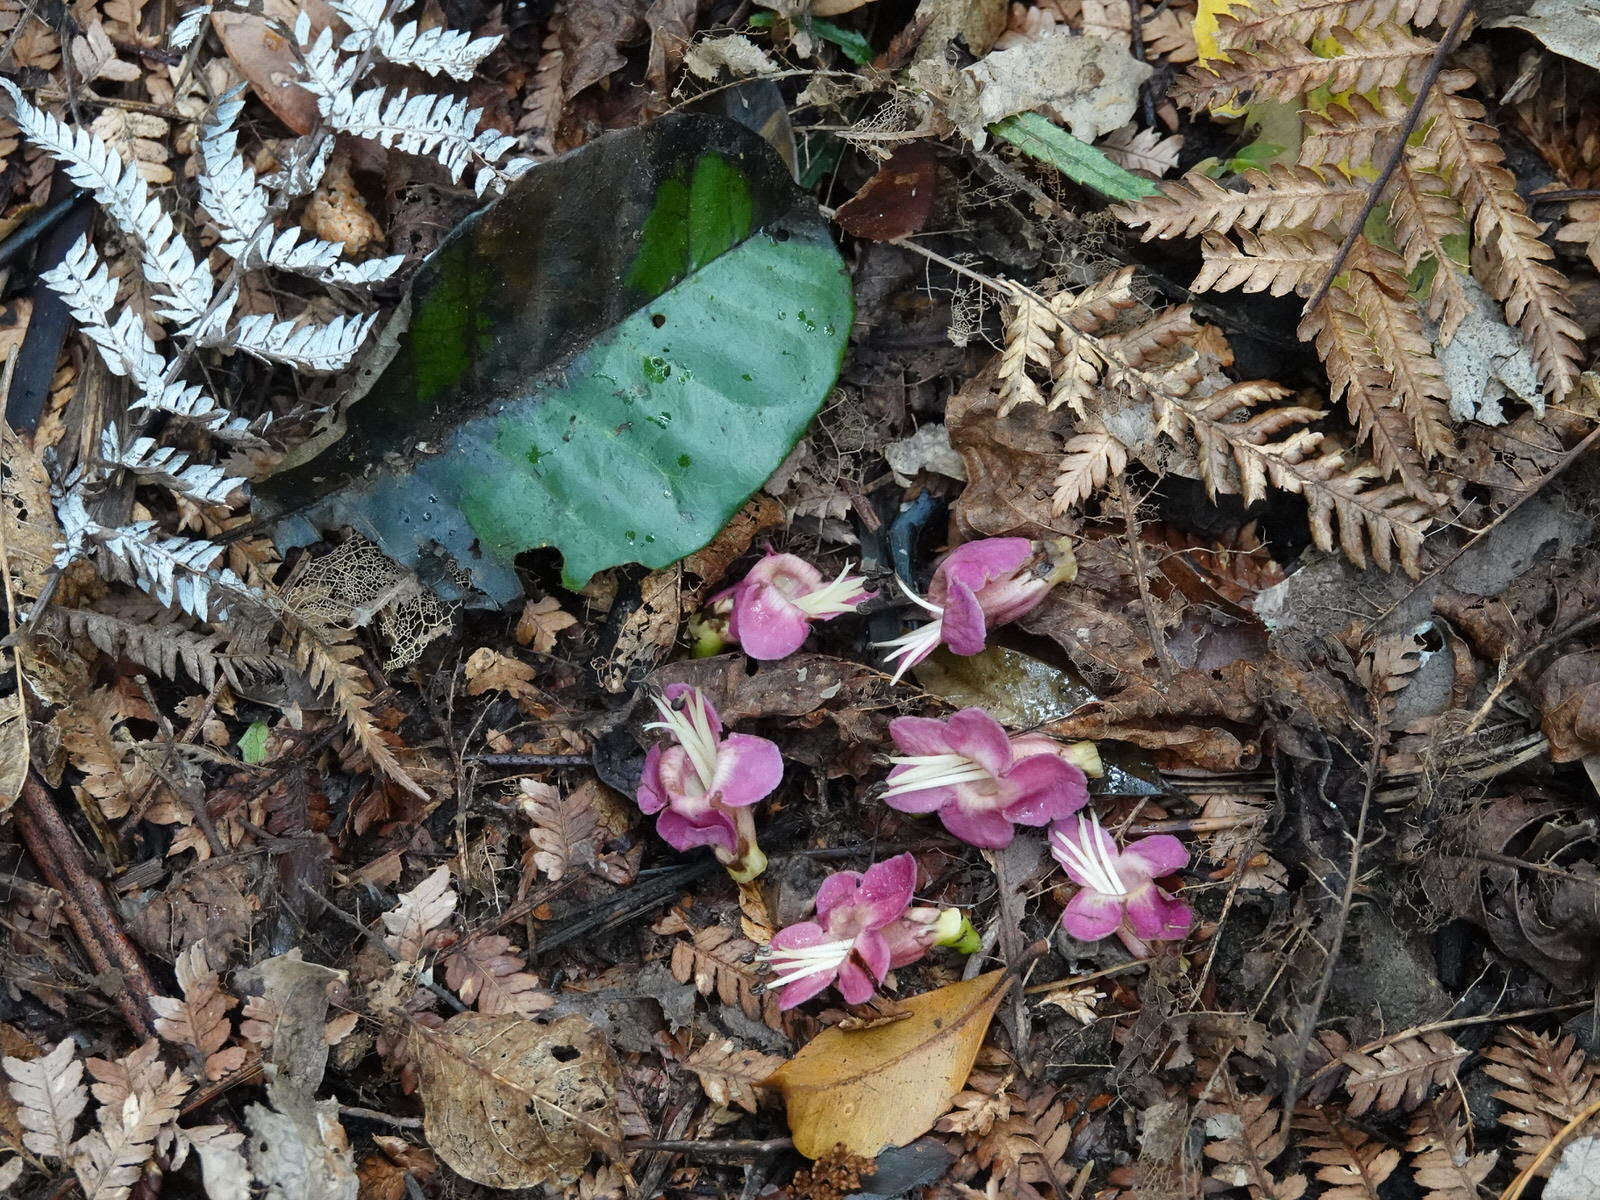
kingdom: Plantae
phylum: Tracheophyta
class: Magnoliopsida
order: Lamiales
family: Lamiaceae
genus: Vitex
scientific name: Vitex lucens
